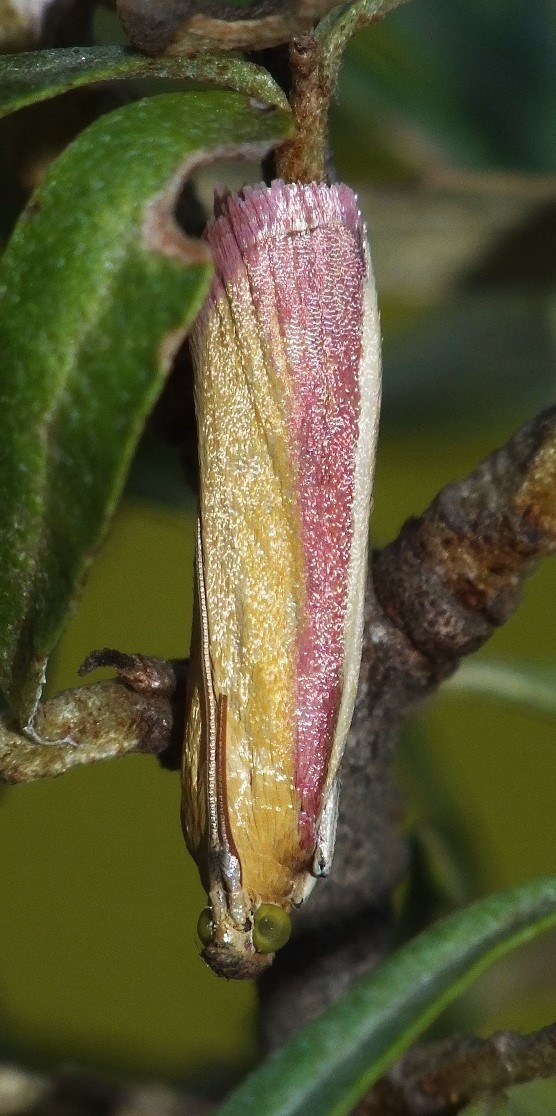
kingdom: Animalia
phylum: Arthropoda
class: Insecta
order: Lepidoptera
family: Pyralidae
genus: Oncocera
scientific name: Oncocera semirubella
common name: Rosy-striped knot-horn
